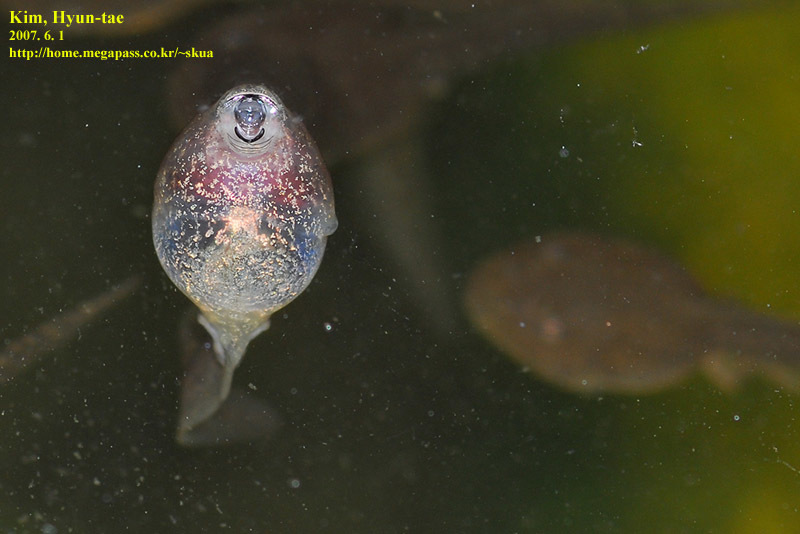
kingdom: Animalia
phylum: Chordata
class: Amphibia
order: Anura
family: Ranidae
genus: Rana
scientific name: Rana uenoi
